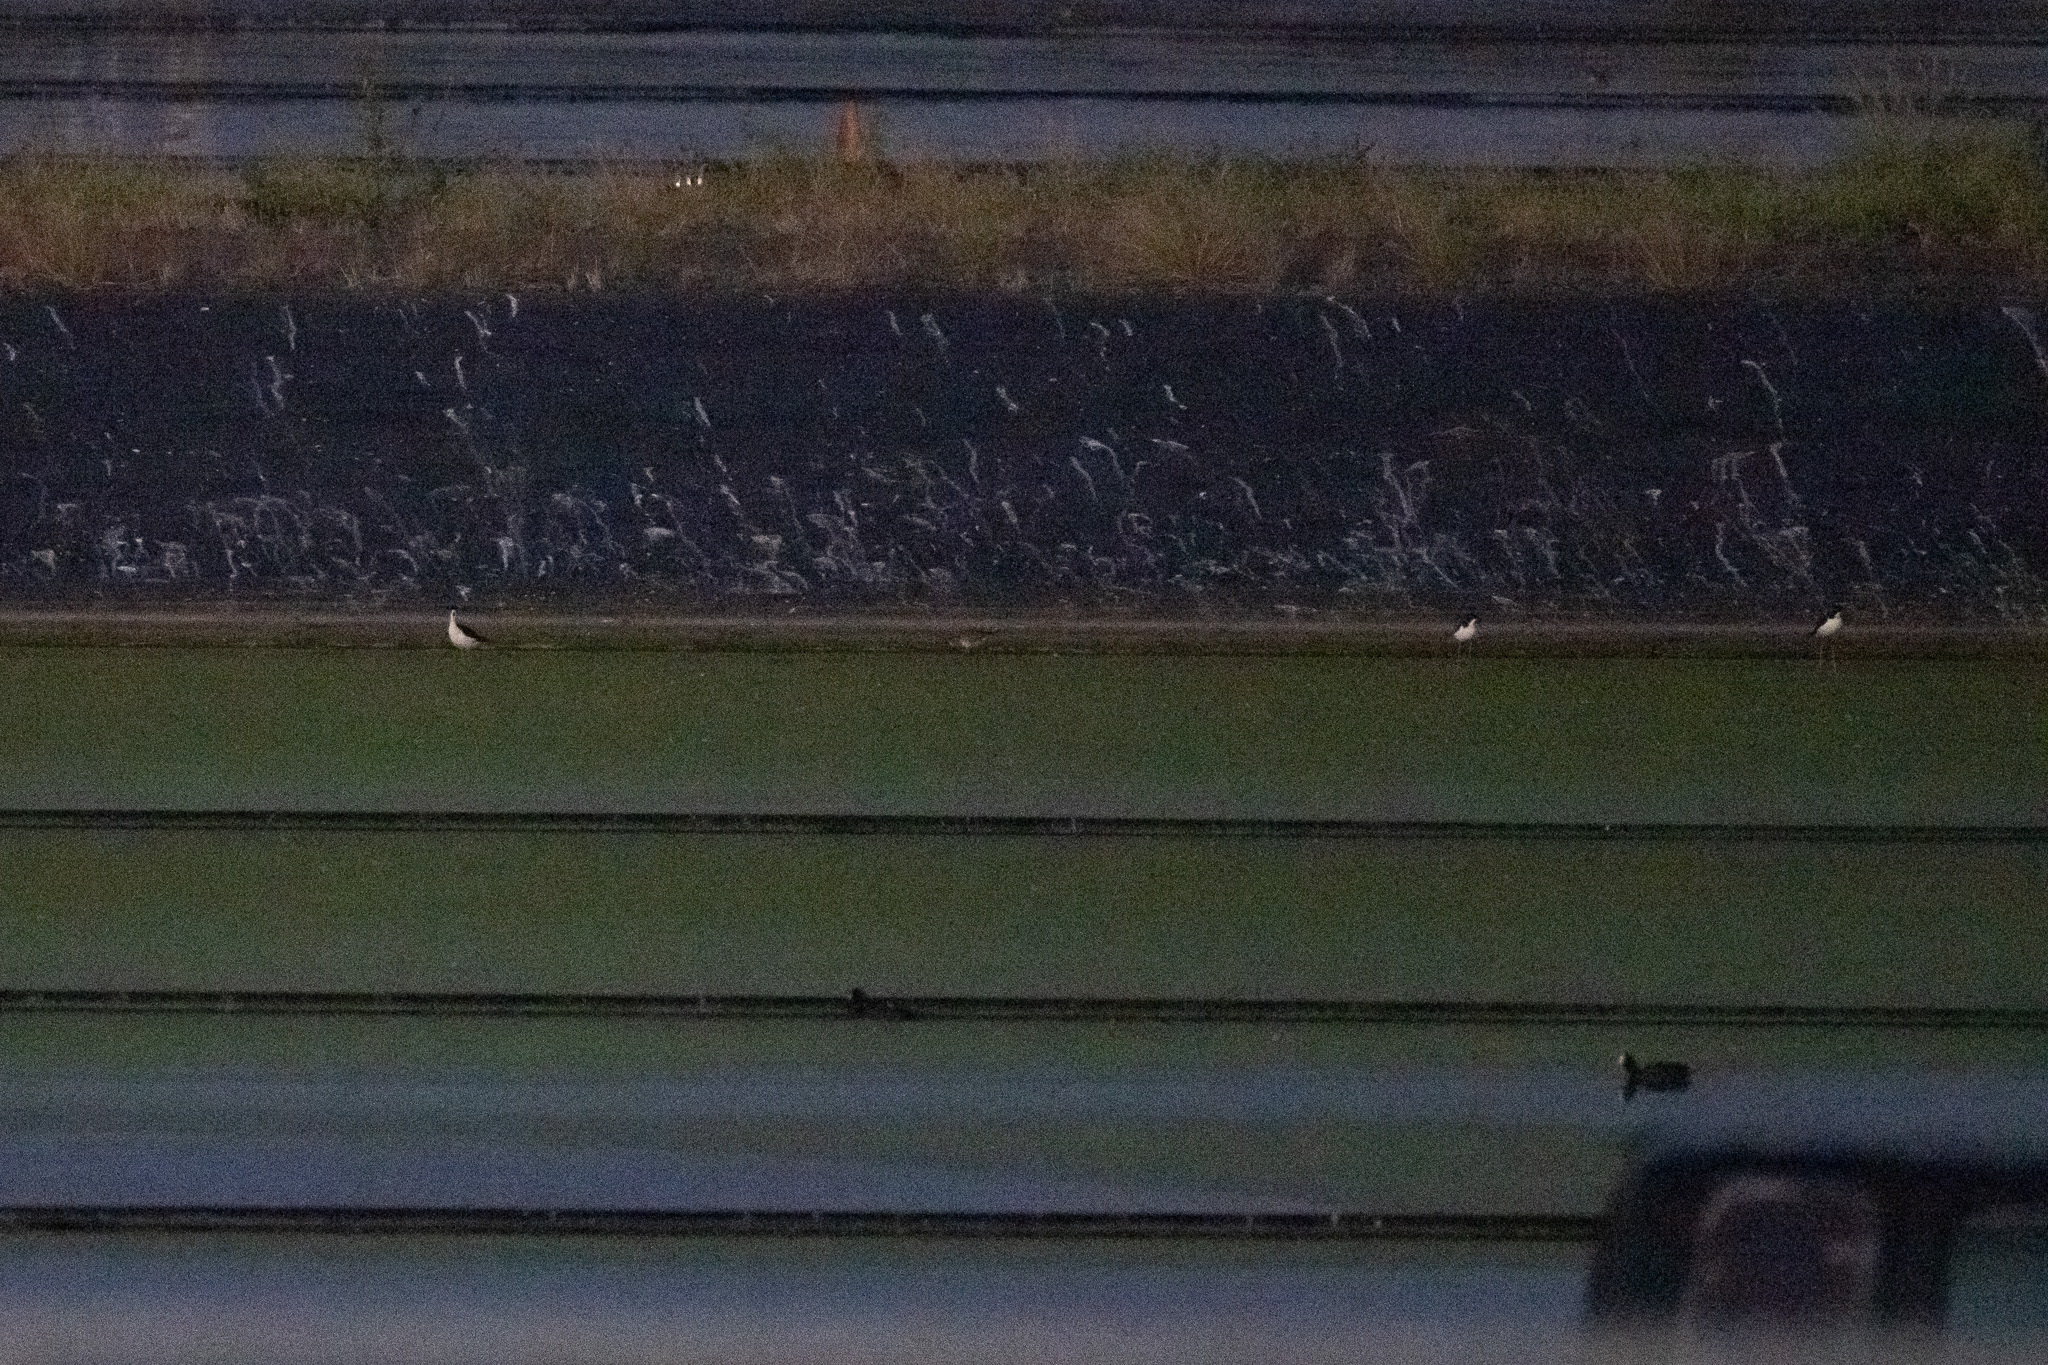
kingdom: Animalia
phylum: Chordata
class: Aves
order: Charadriiformes
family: Recurvirostridae
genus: Himantopus
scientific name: Himantopus mexicanus
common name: Black-necked stilt
